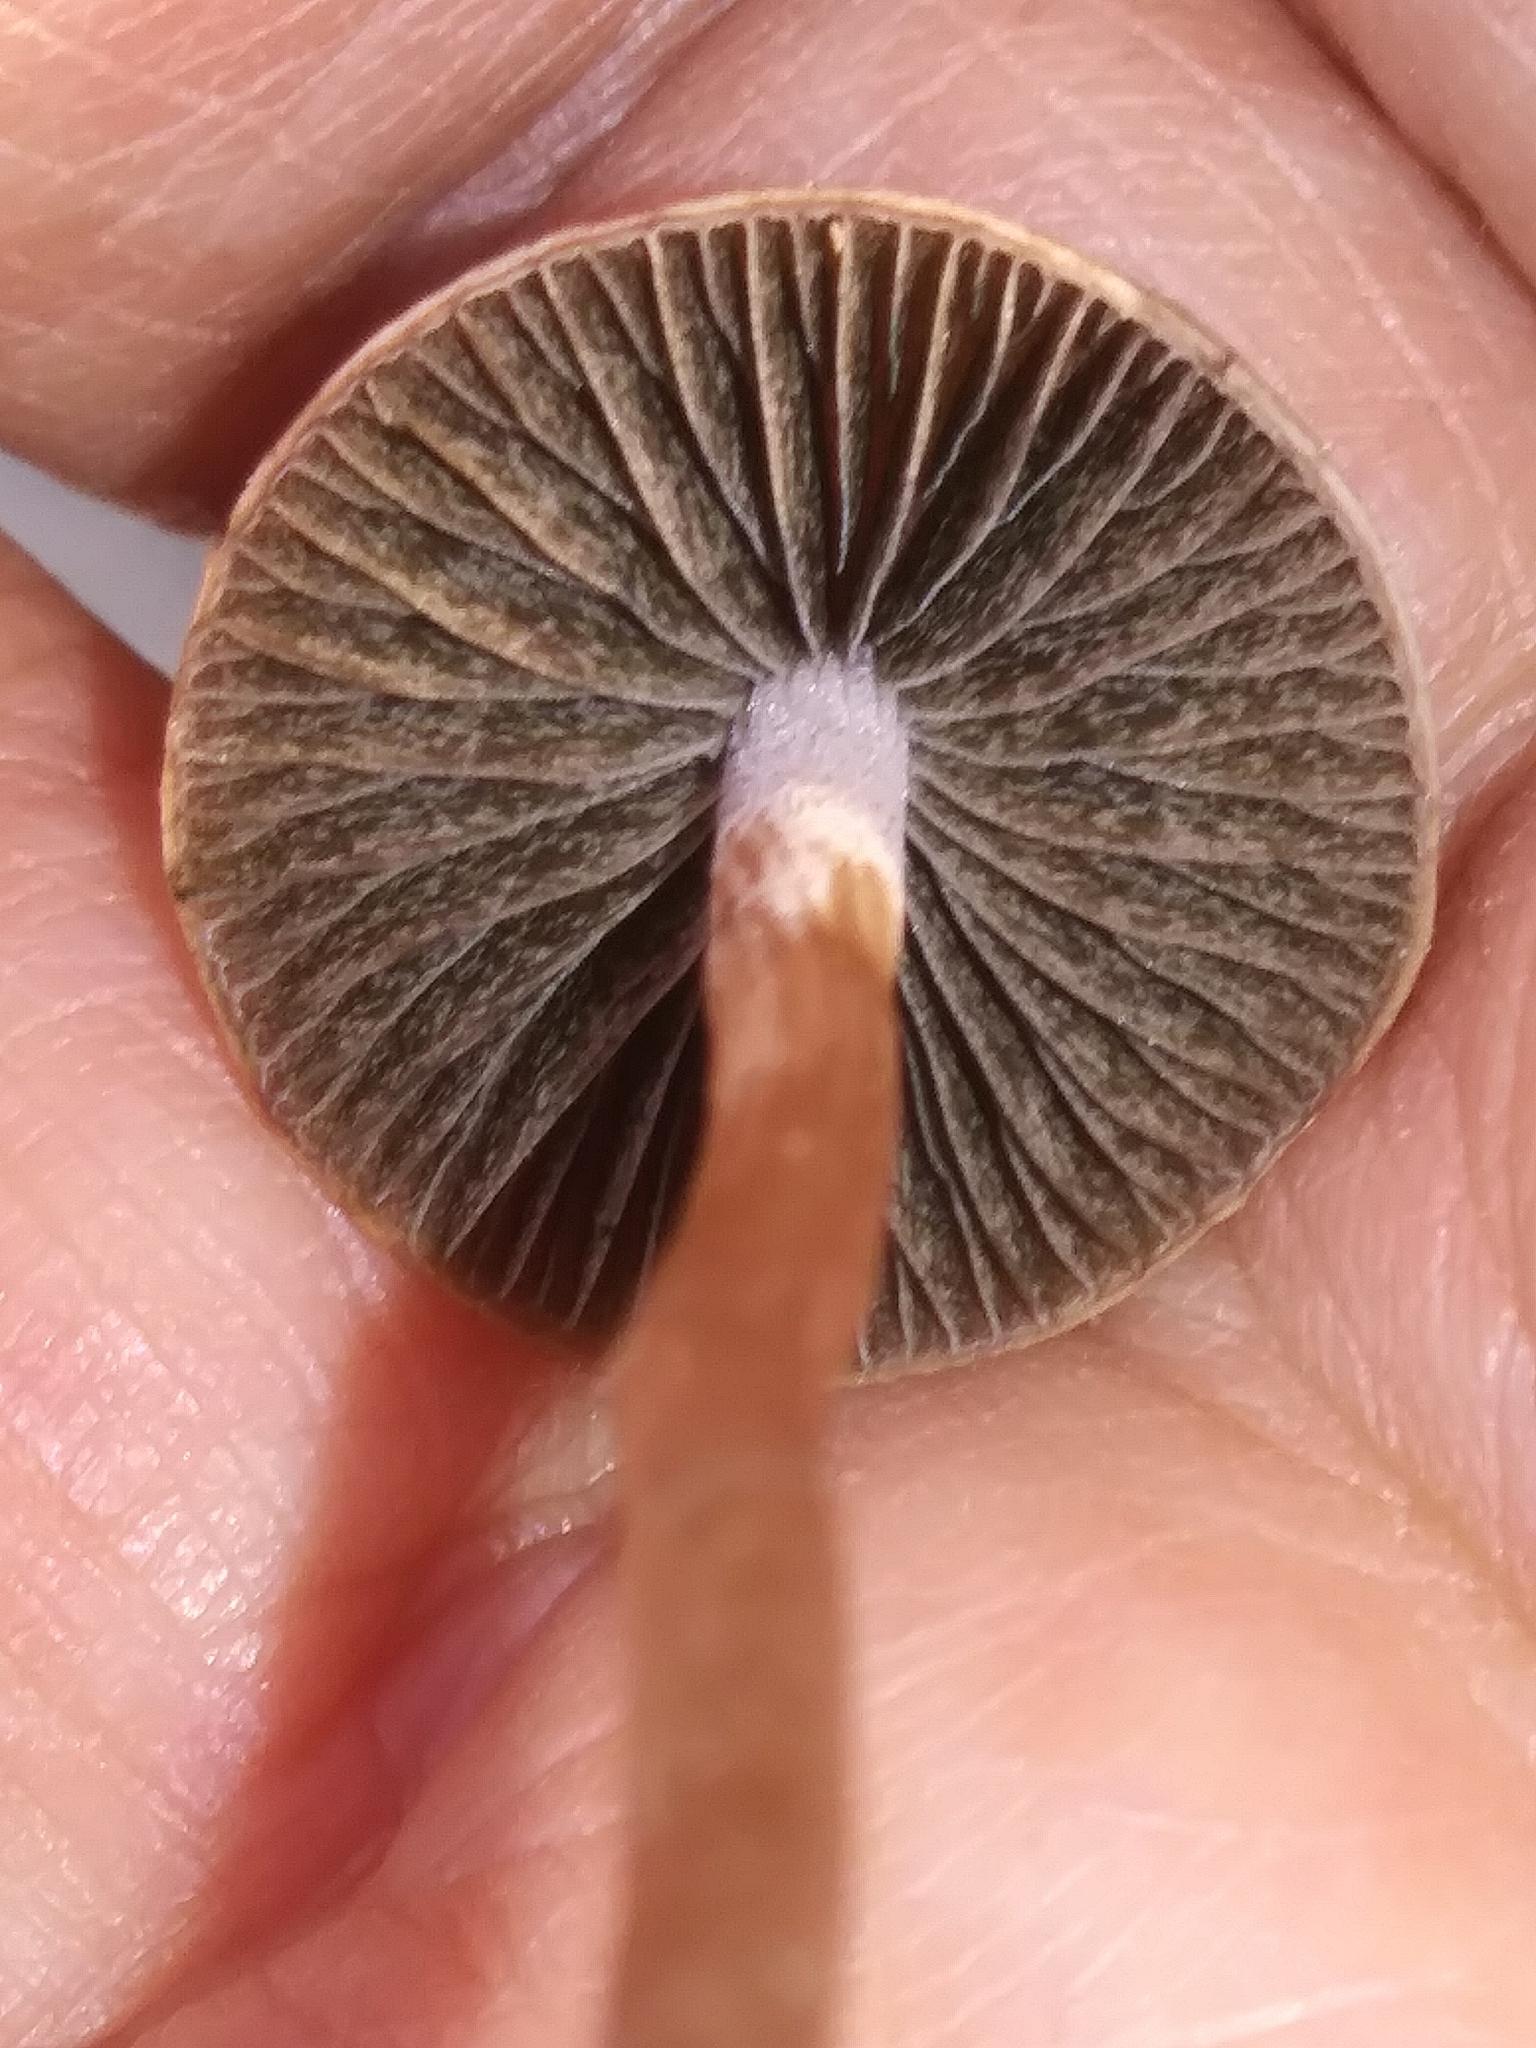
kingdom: Fungi
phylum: Basidiomycota
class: Agaricomycetes
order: Agaricales
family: Bolbitiaceae
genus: Panaeolina
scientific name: Panaeolina foenisecii
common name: Brown hay cap
